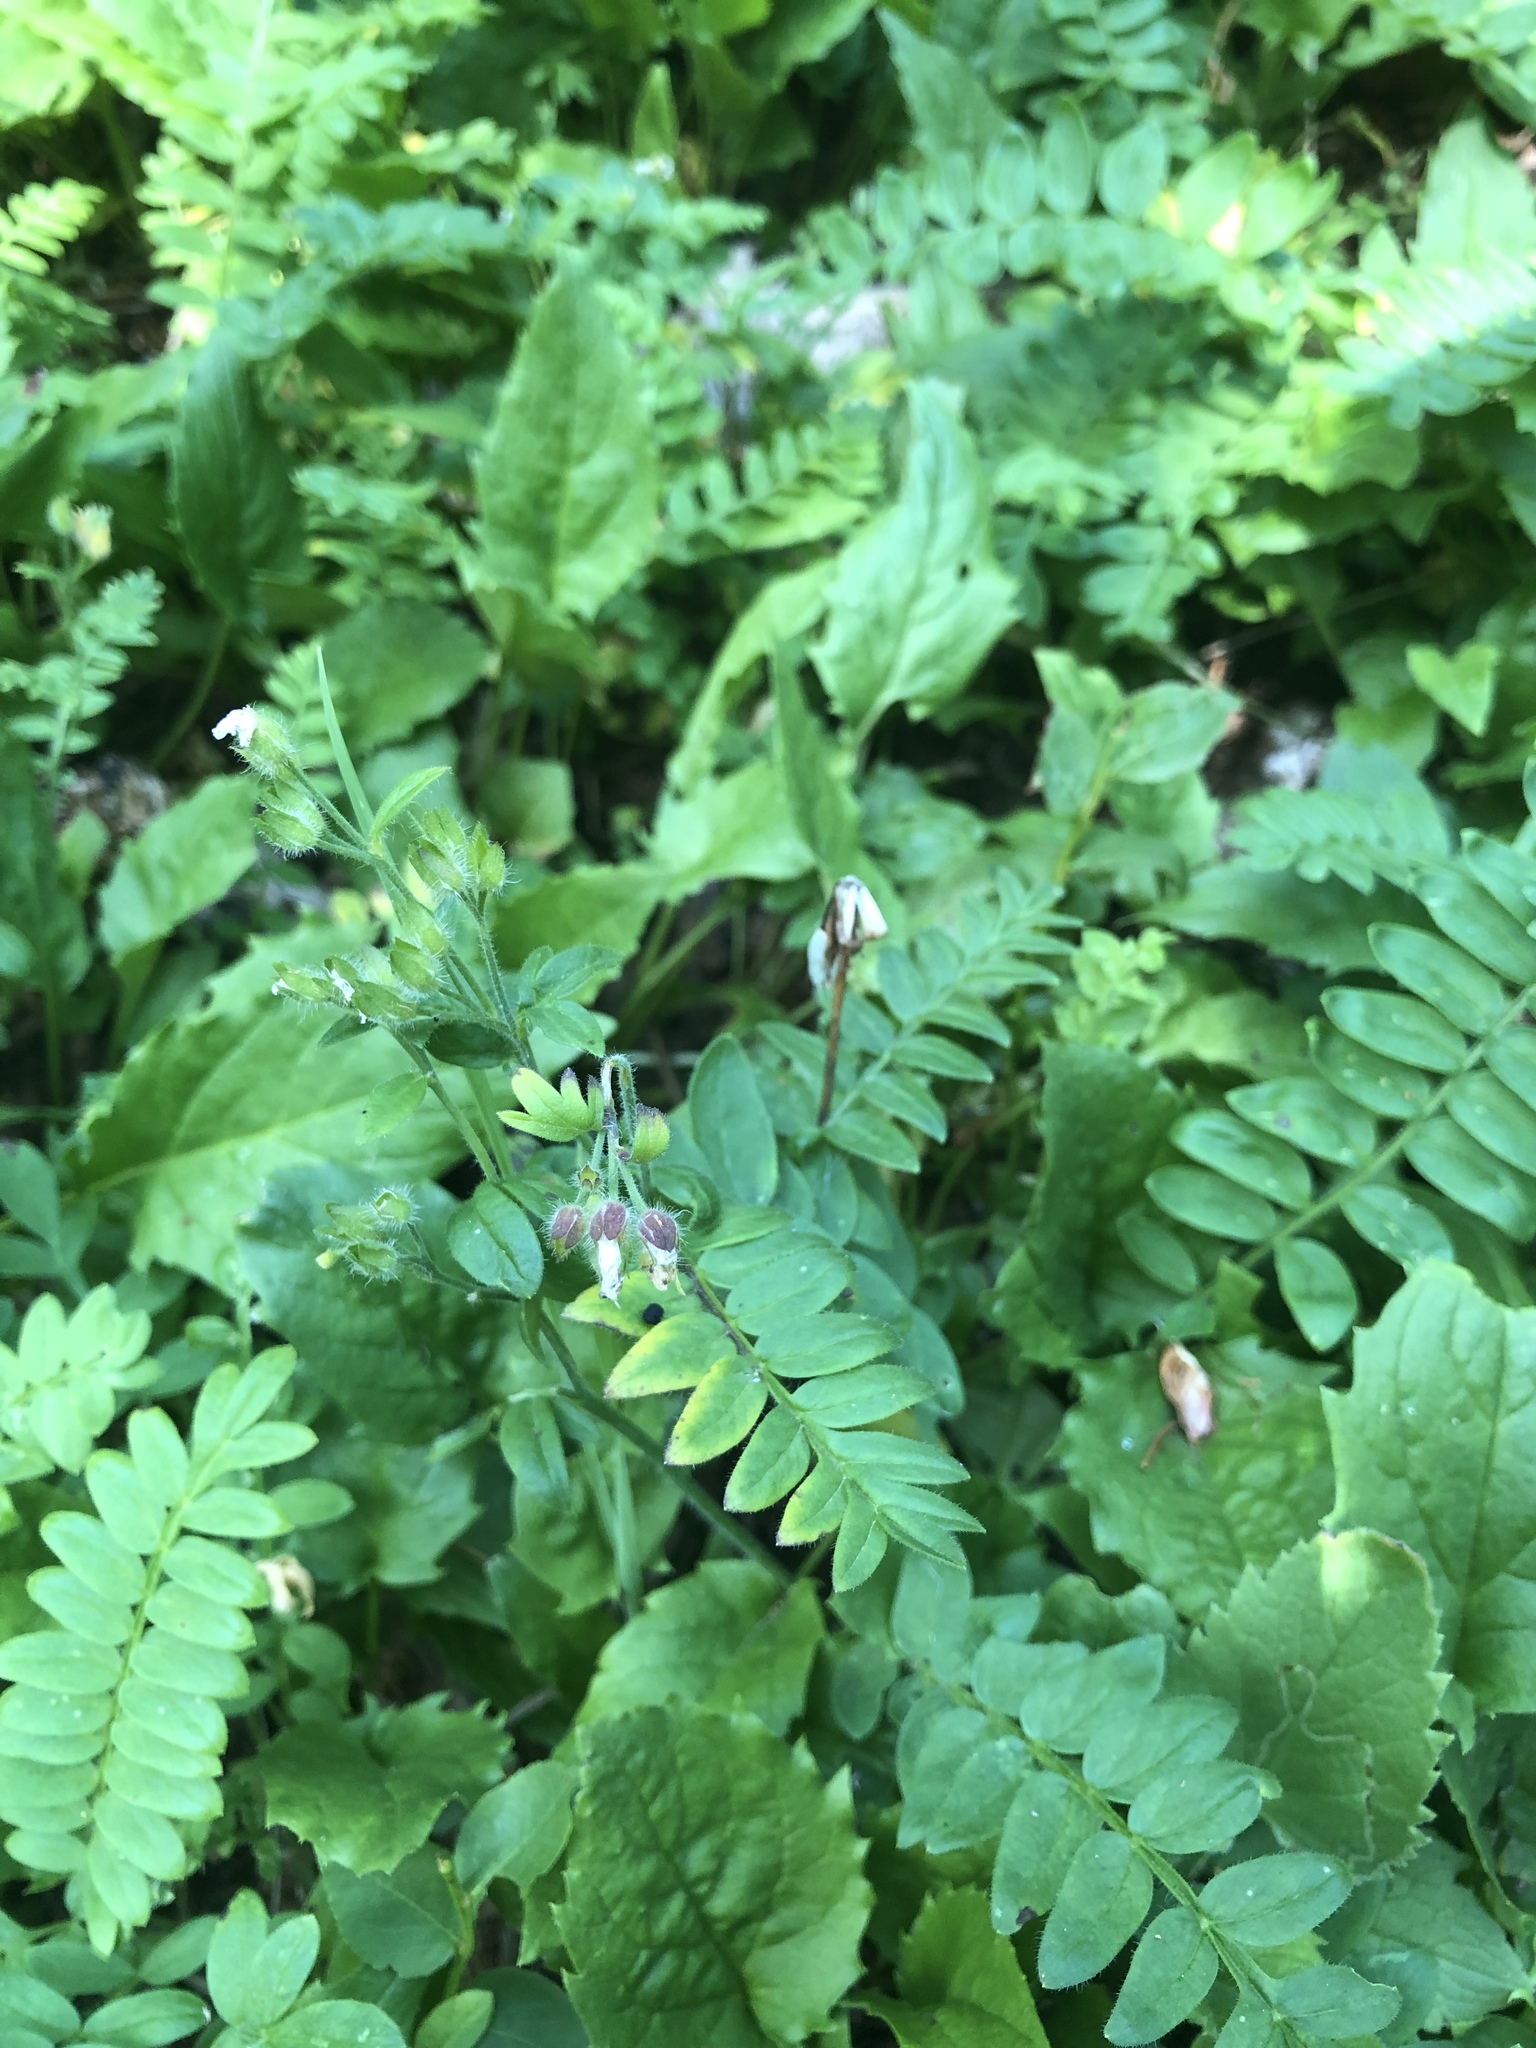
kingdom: Plantae
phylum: Tracheophyta
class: Magnoliopsida
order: Ericales
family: Polemoniaceae
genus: Polemonium
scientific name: Polemonium pulcherrimum
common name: Short jacob's-ladder
